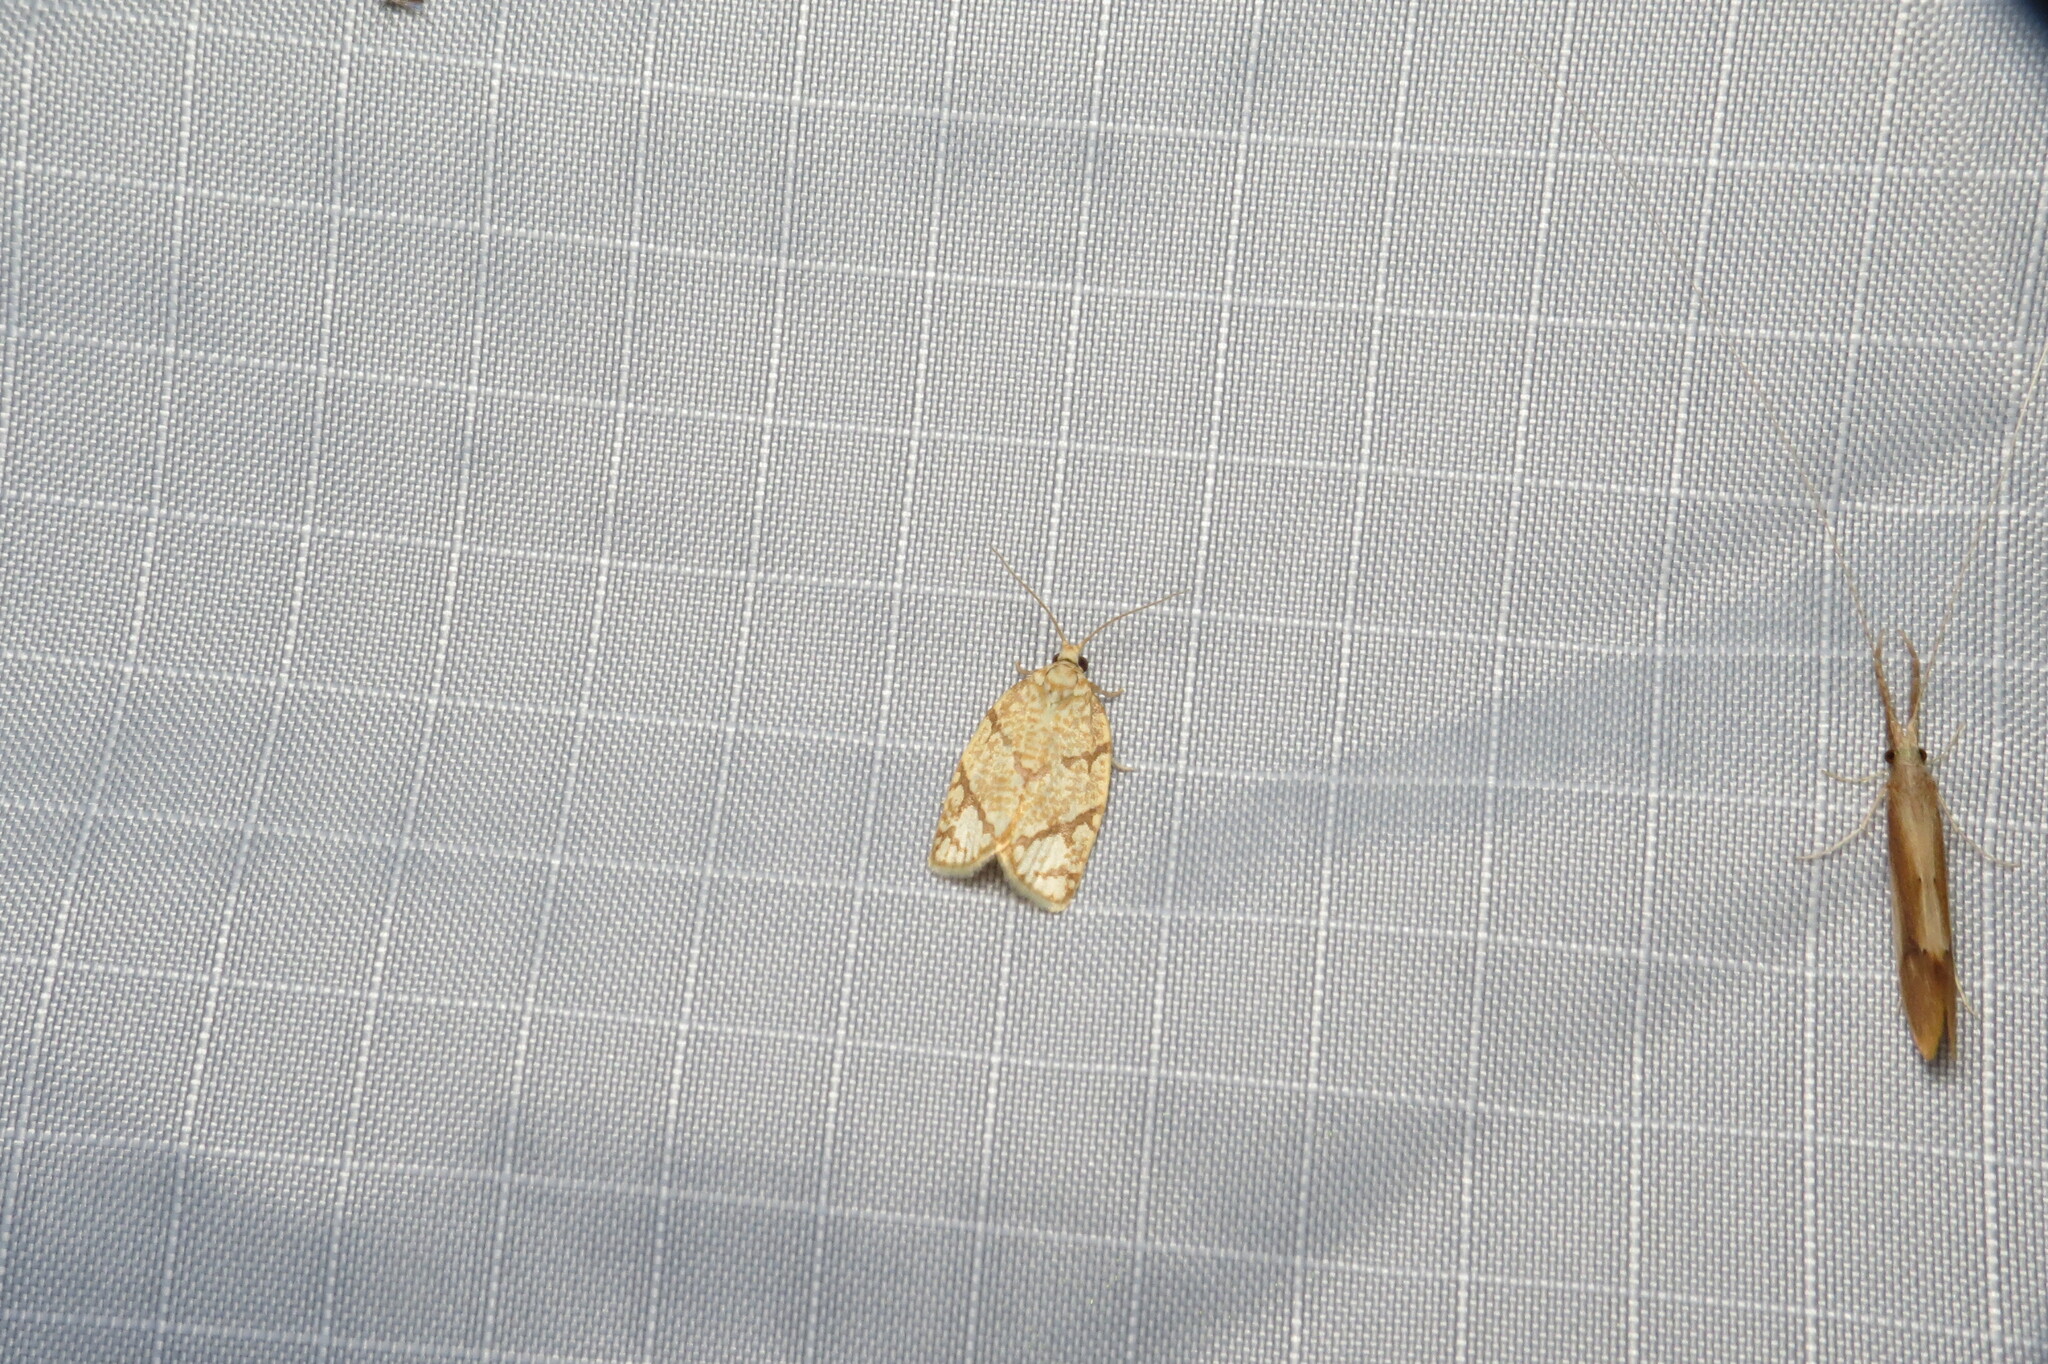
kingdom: Animalia
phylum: Arthropoda
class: Insecta
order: Lepidoptera
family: Tortricidae
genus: Argyrotaenia
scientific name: Argyrotaenia quercifoliana
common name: Yellow-winged oak leafroller moth
